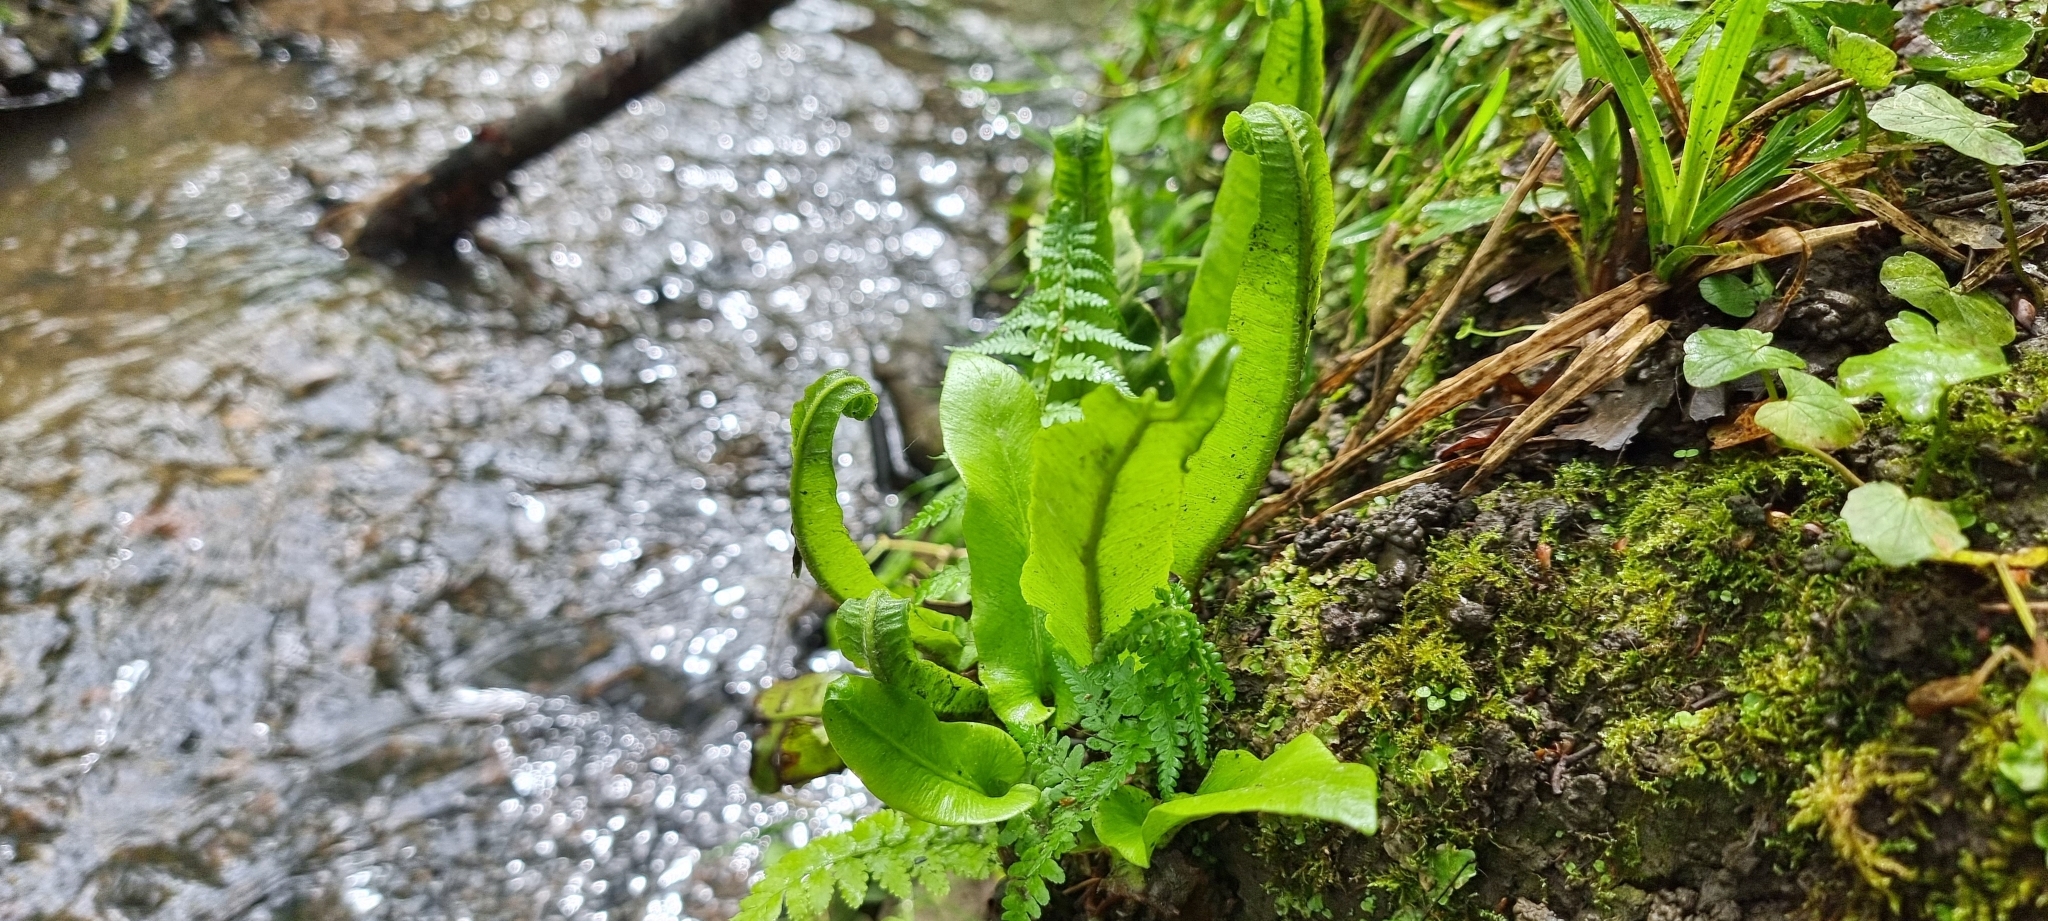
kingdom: Plantae
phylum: Tracheophyta
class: Polypodiopsida
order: Polypodiales
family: Aspleniaceae
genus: Asplenium
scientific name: Asplenium scolopendrium
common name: Hart's-tongue fern
